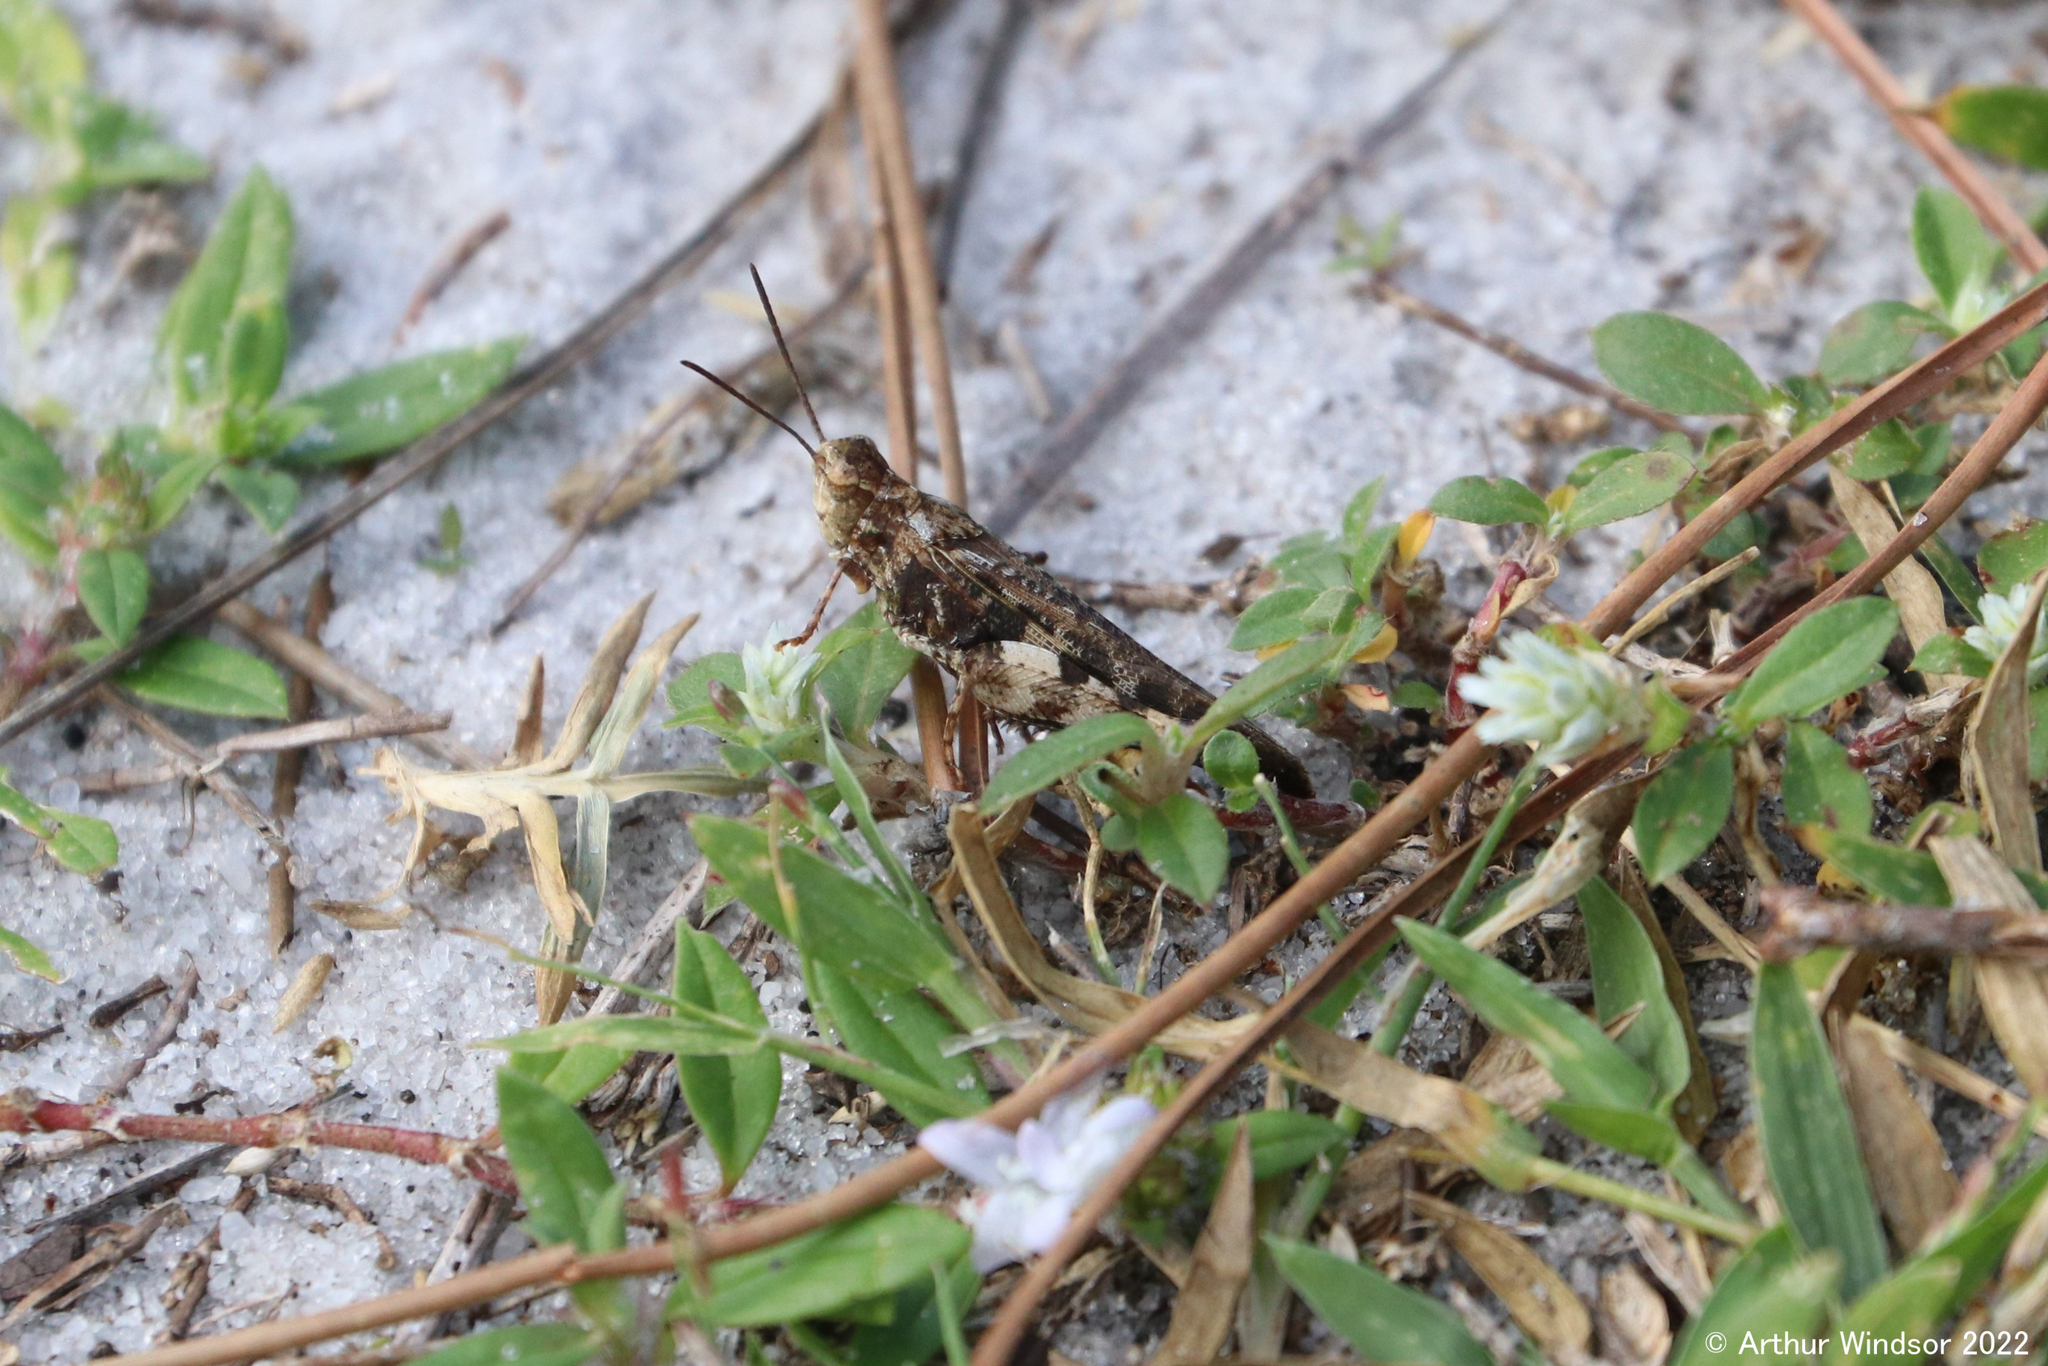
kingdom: Animalia
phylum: Arthropoda
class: Insecta
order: Orthoptera
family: Acrididae
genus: Chortophaga
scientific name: Chortophaga australior
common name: Southern green-striped grasshopper
